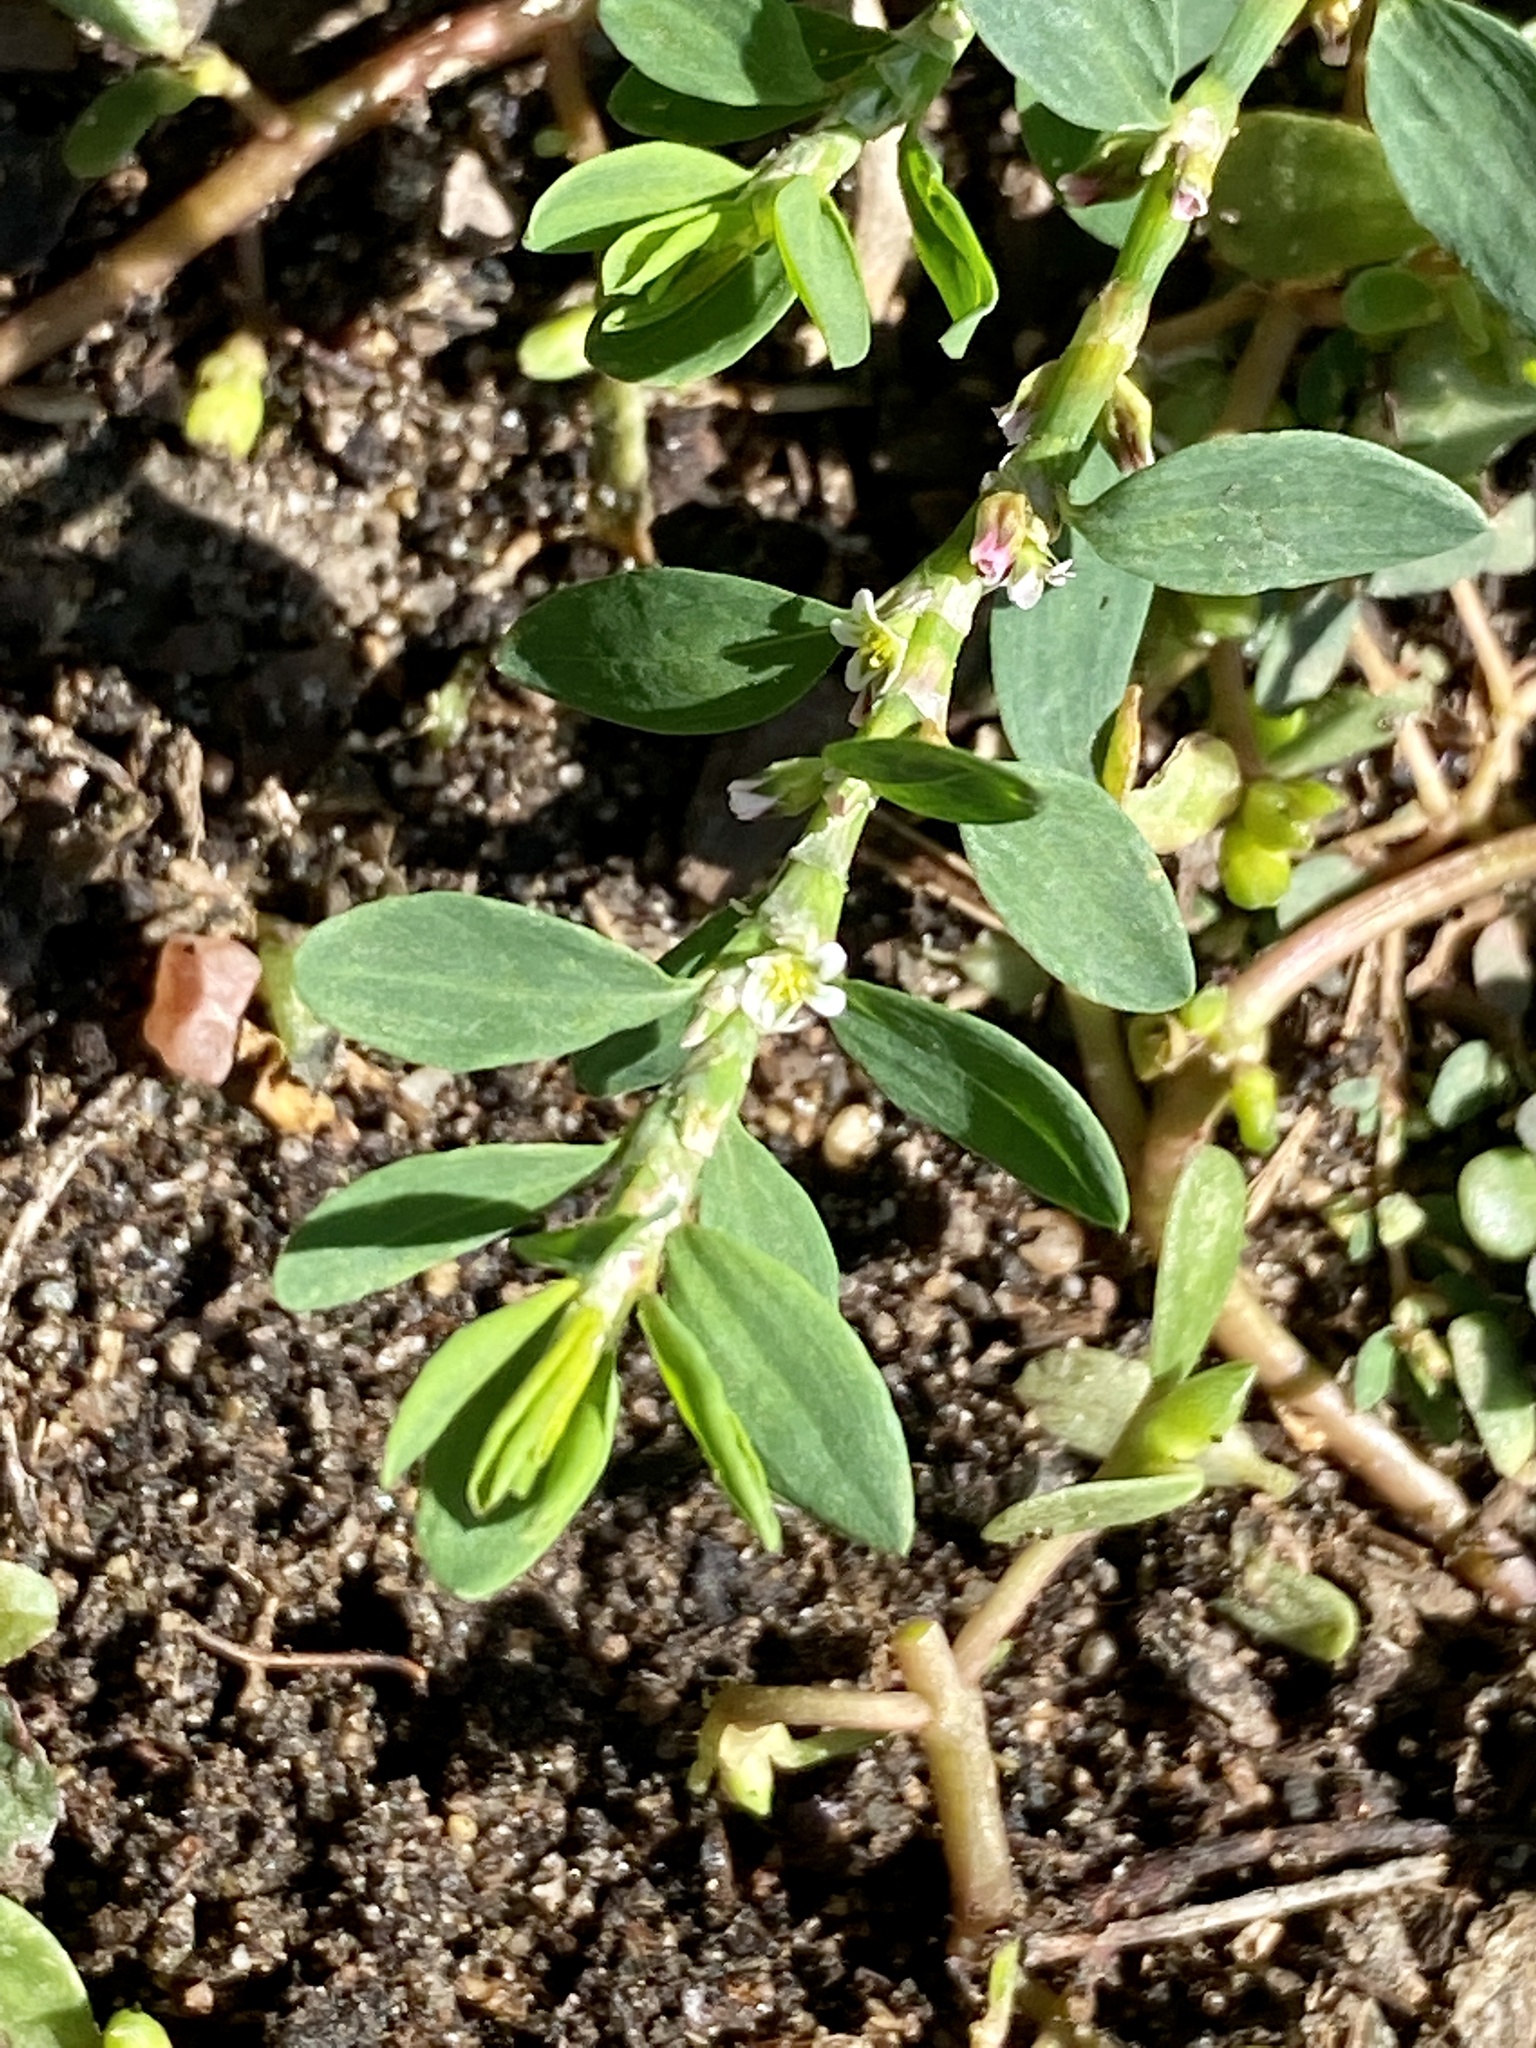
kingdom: Plantae
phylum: Tracheophyta
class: Magnoliopsida
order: Caryophyllales
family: Polygonaceae
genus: Polygonum
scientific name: Polygonum aviculare
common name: Prostrate knotweed
